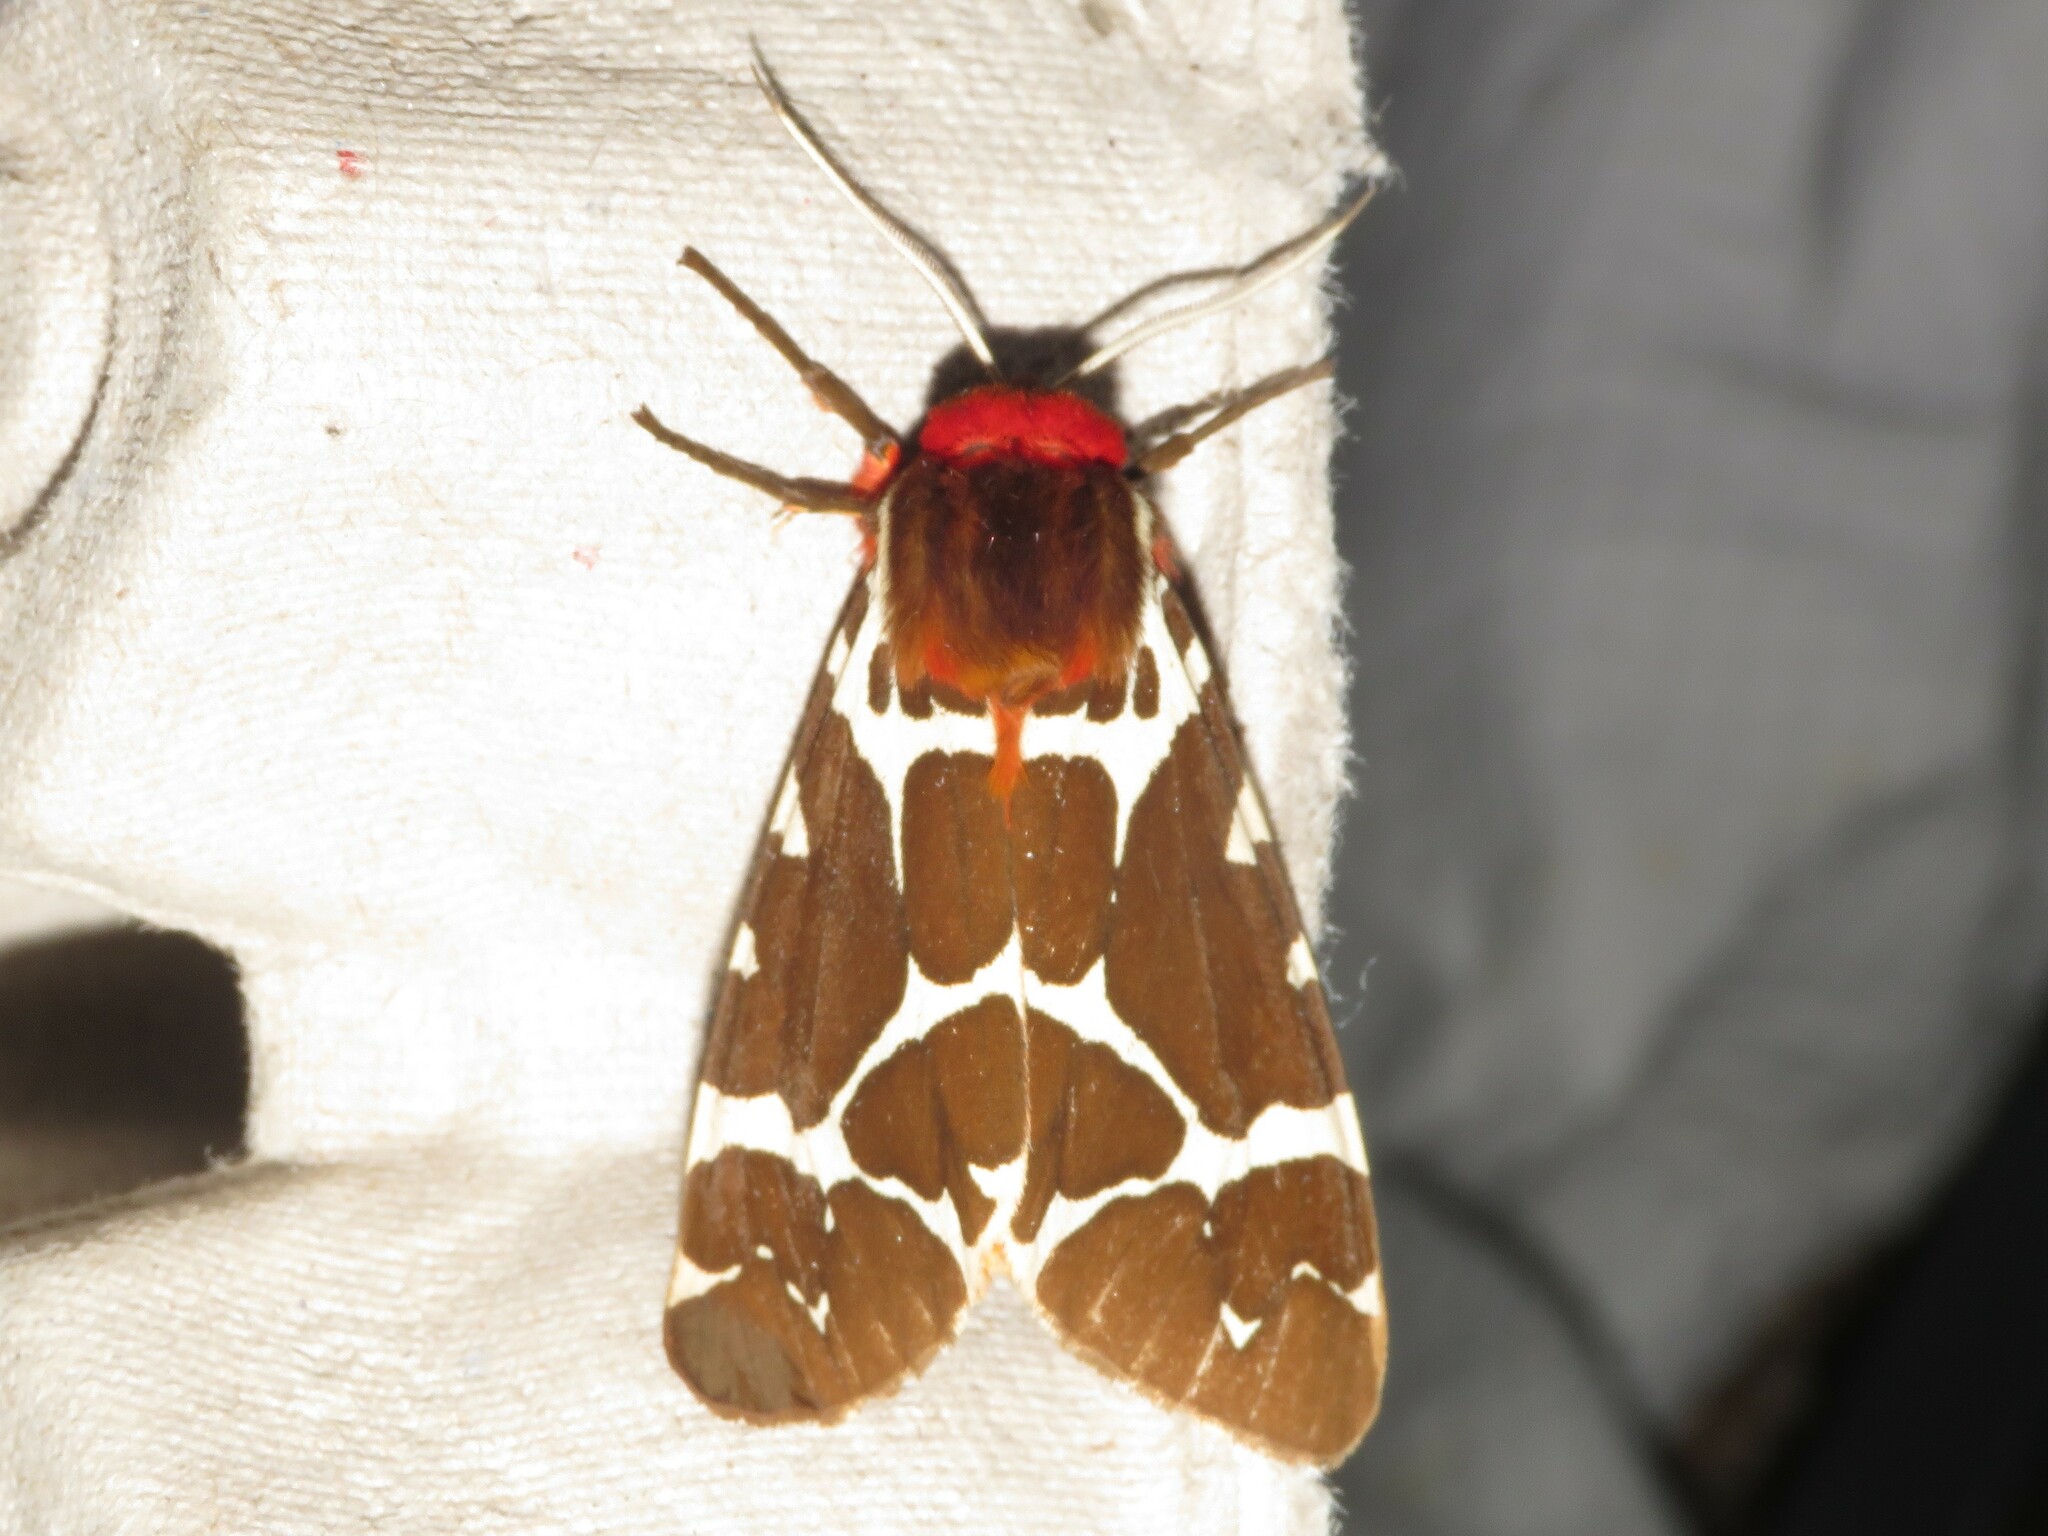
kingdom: Animalia
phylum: Arthropoda
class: Insecta
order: Lepidoptera
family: Erebidae
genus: Arctia
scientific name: Arctia caja
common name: Garden tiger
